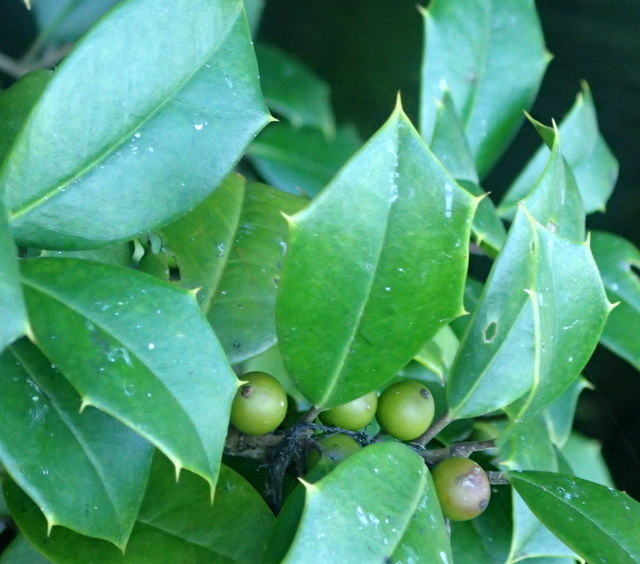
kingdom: Plantae
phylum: Tracheophyta
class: Magnoliopsida
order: Aquifoliales
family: Aquifoliaceae
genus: Ilex
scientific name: Ilex opaca
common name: American holly
